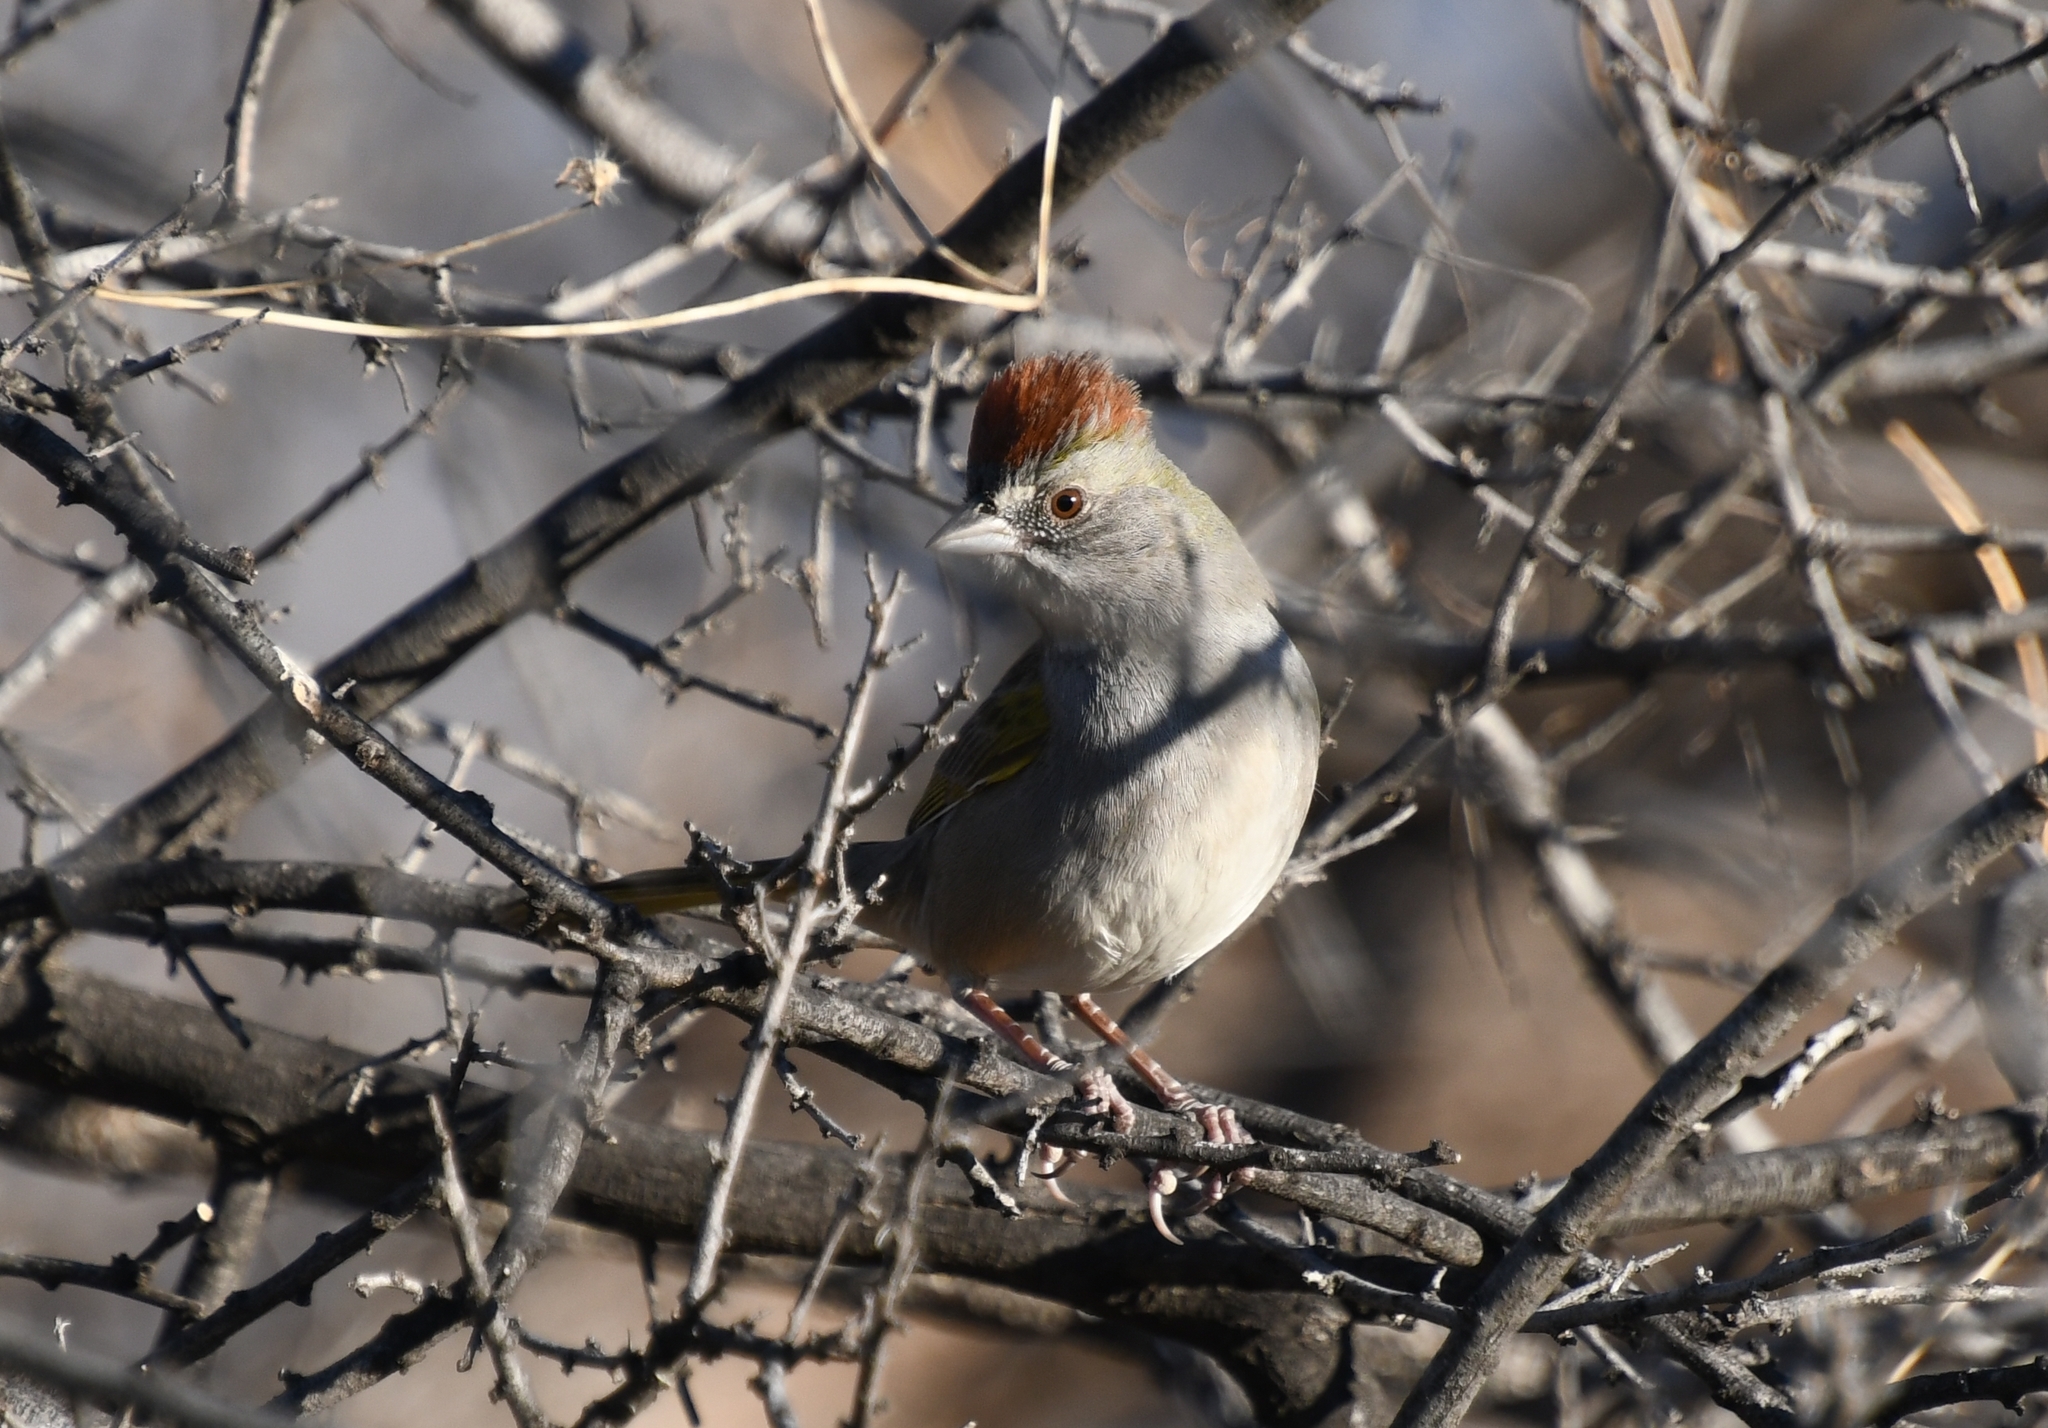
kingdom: Animalia
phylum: Chordata
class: Aves
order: Passeriformes
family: Passerellidae
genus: Pipilo
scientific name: Pipilo chlorurus
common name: Green-tailed towhee
